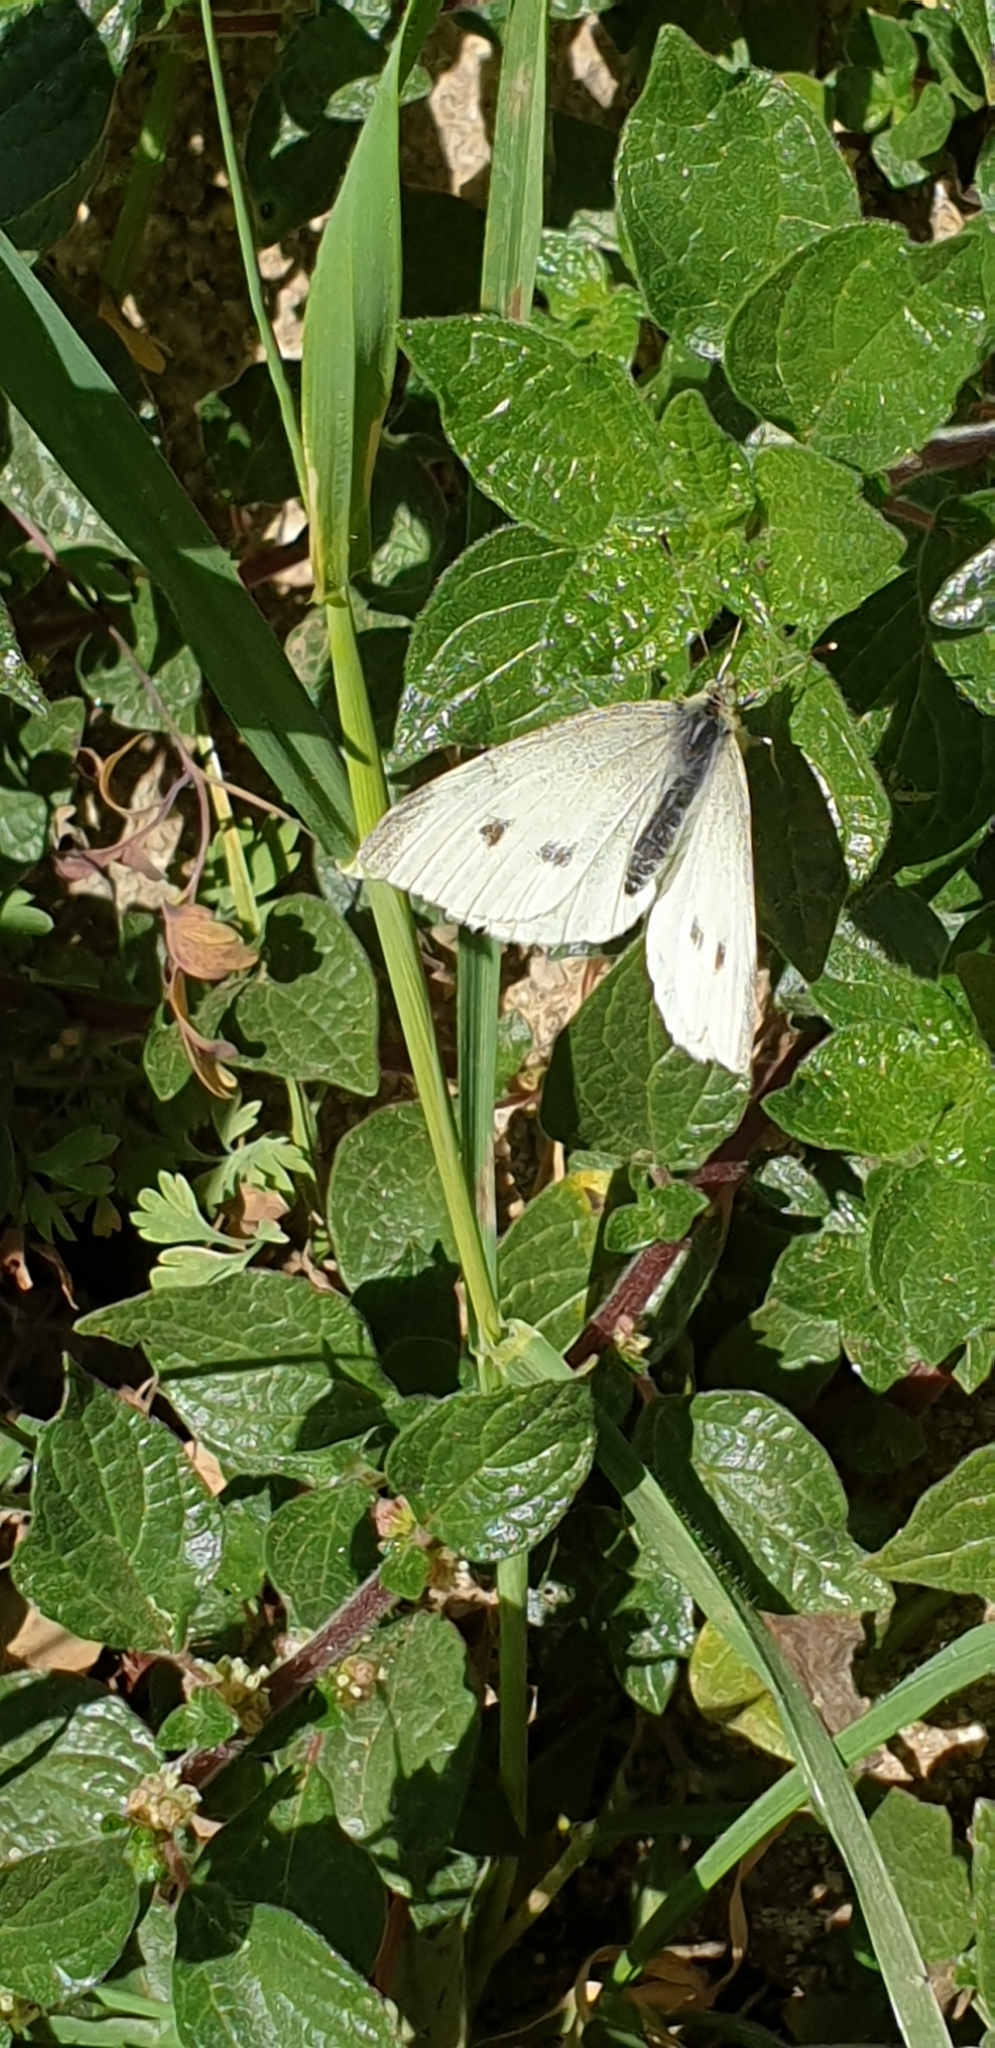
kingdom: Animalia
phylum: Arthropoda
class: Insecta
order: Lepidoptera
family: Pieridae
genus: Pieris
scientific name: Pieris rapae
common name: Small white
